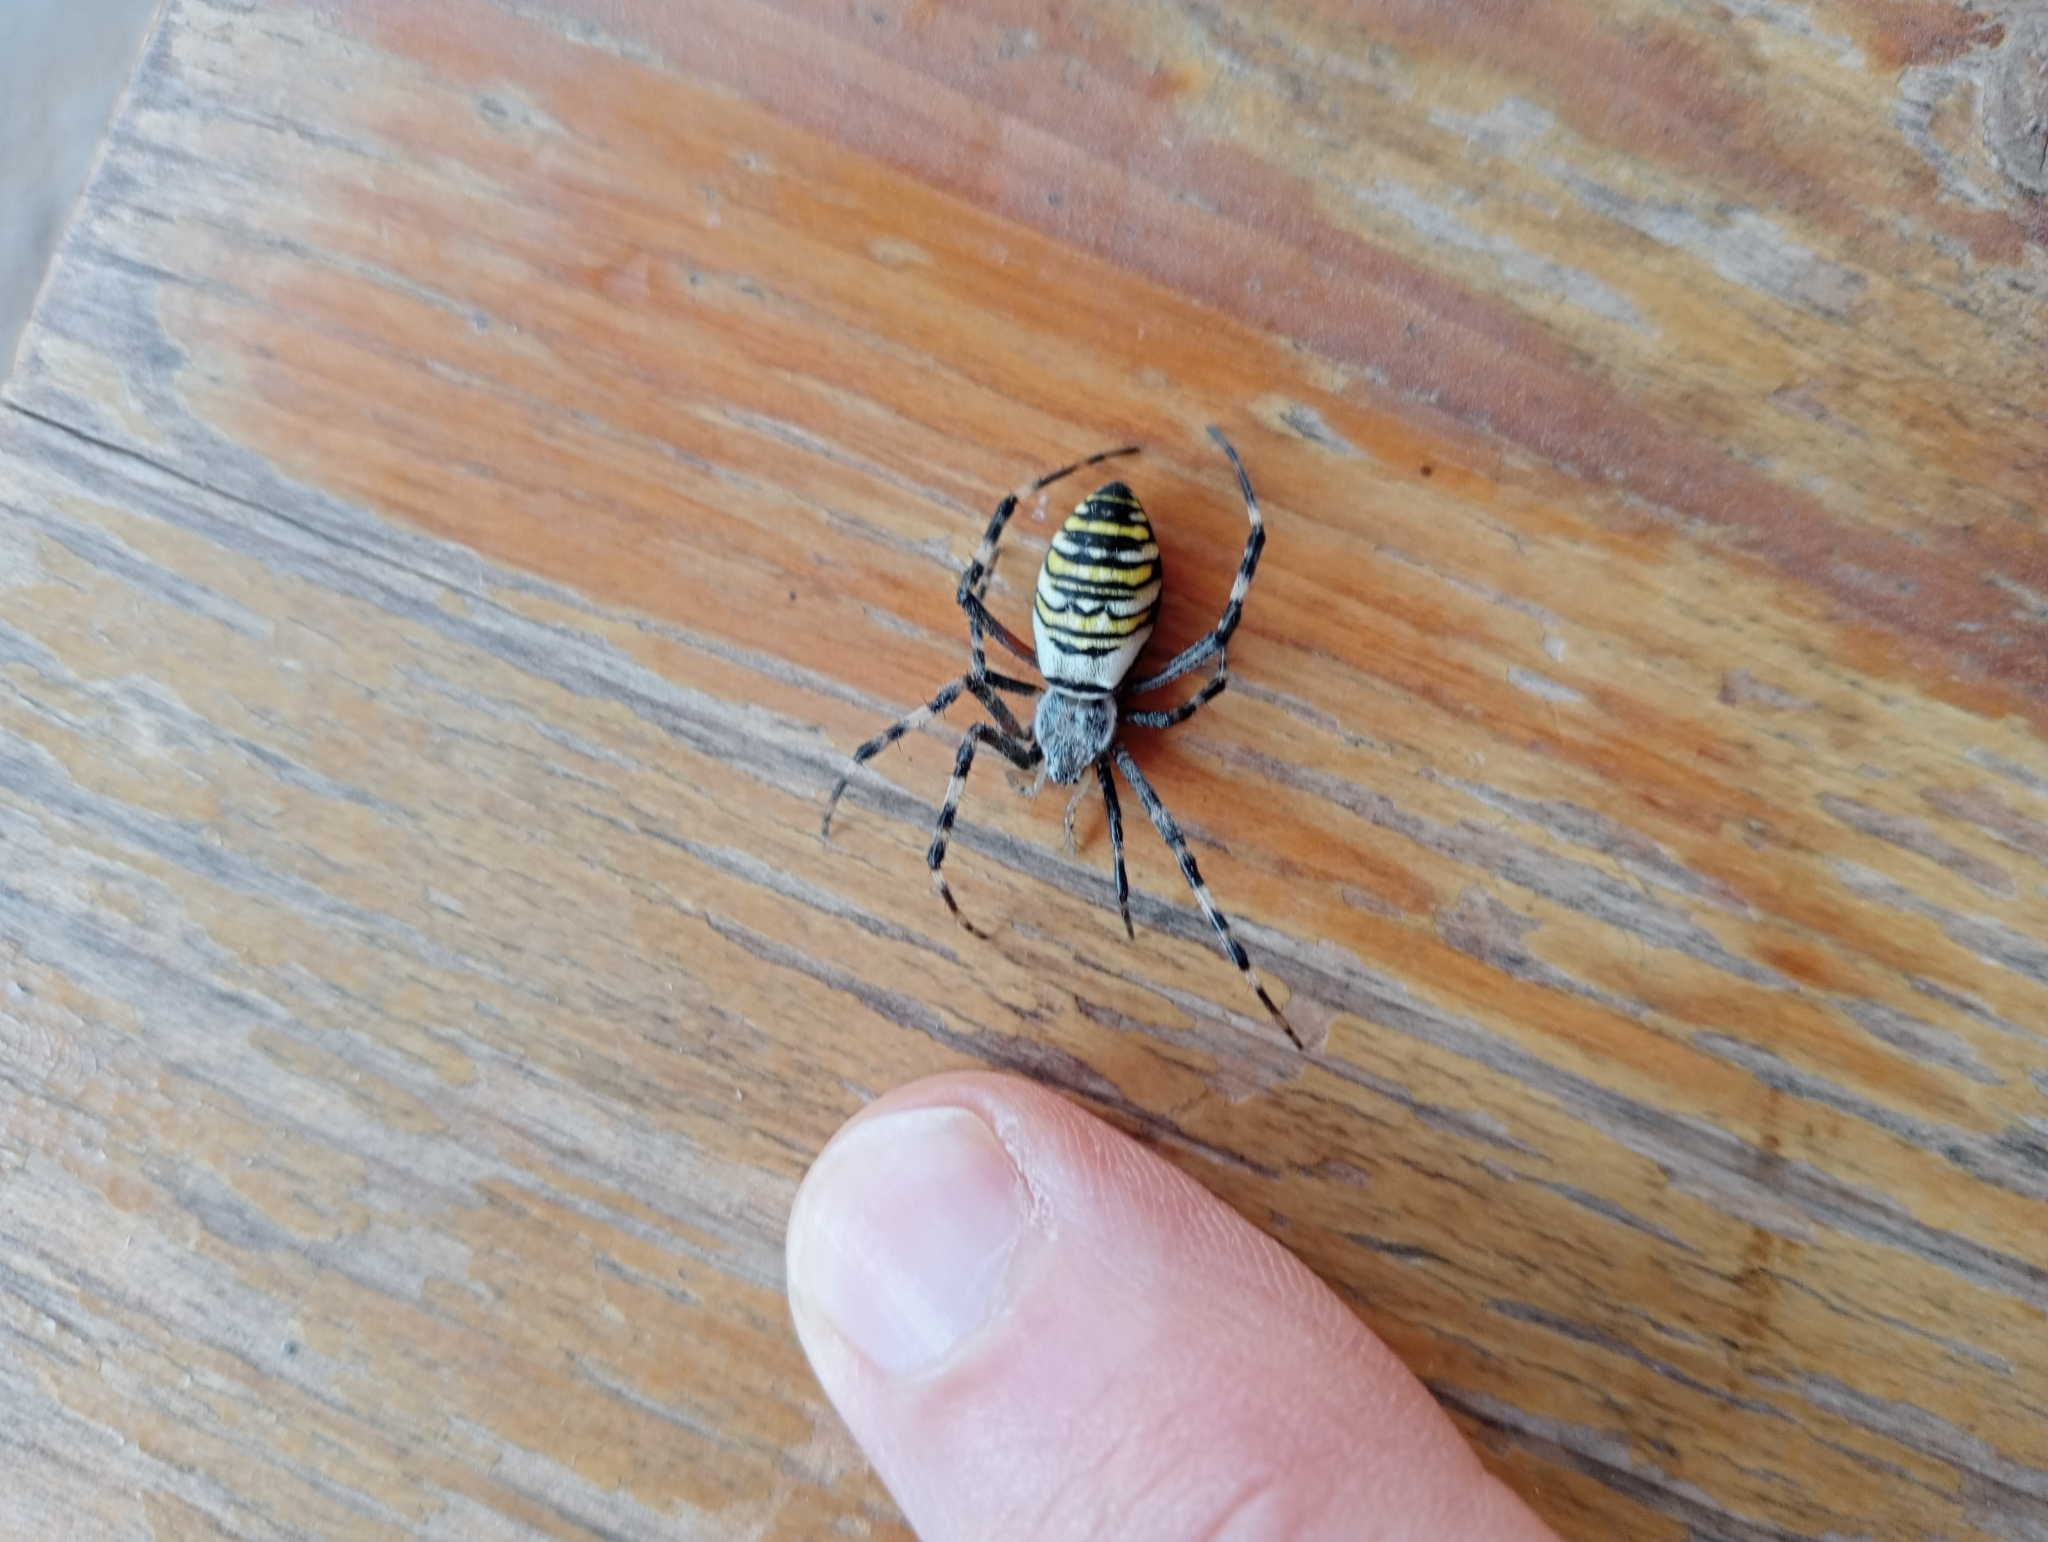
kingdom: Animalia
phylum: Arthropoda
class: Arachnida
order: Araneae
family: Araneidae
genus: Argiope
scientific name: Argiope bruennichi
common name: Wasp spider
